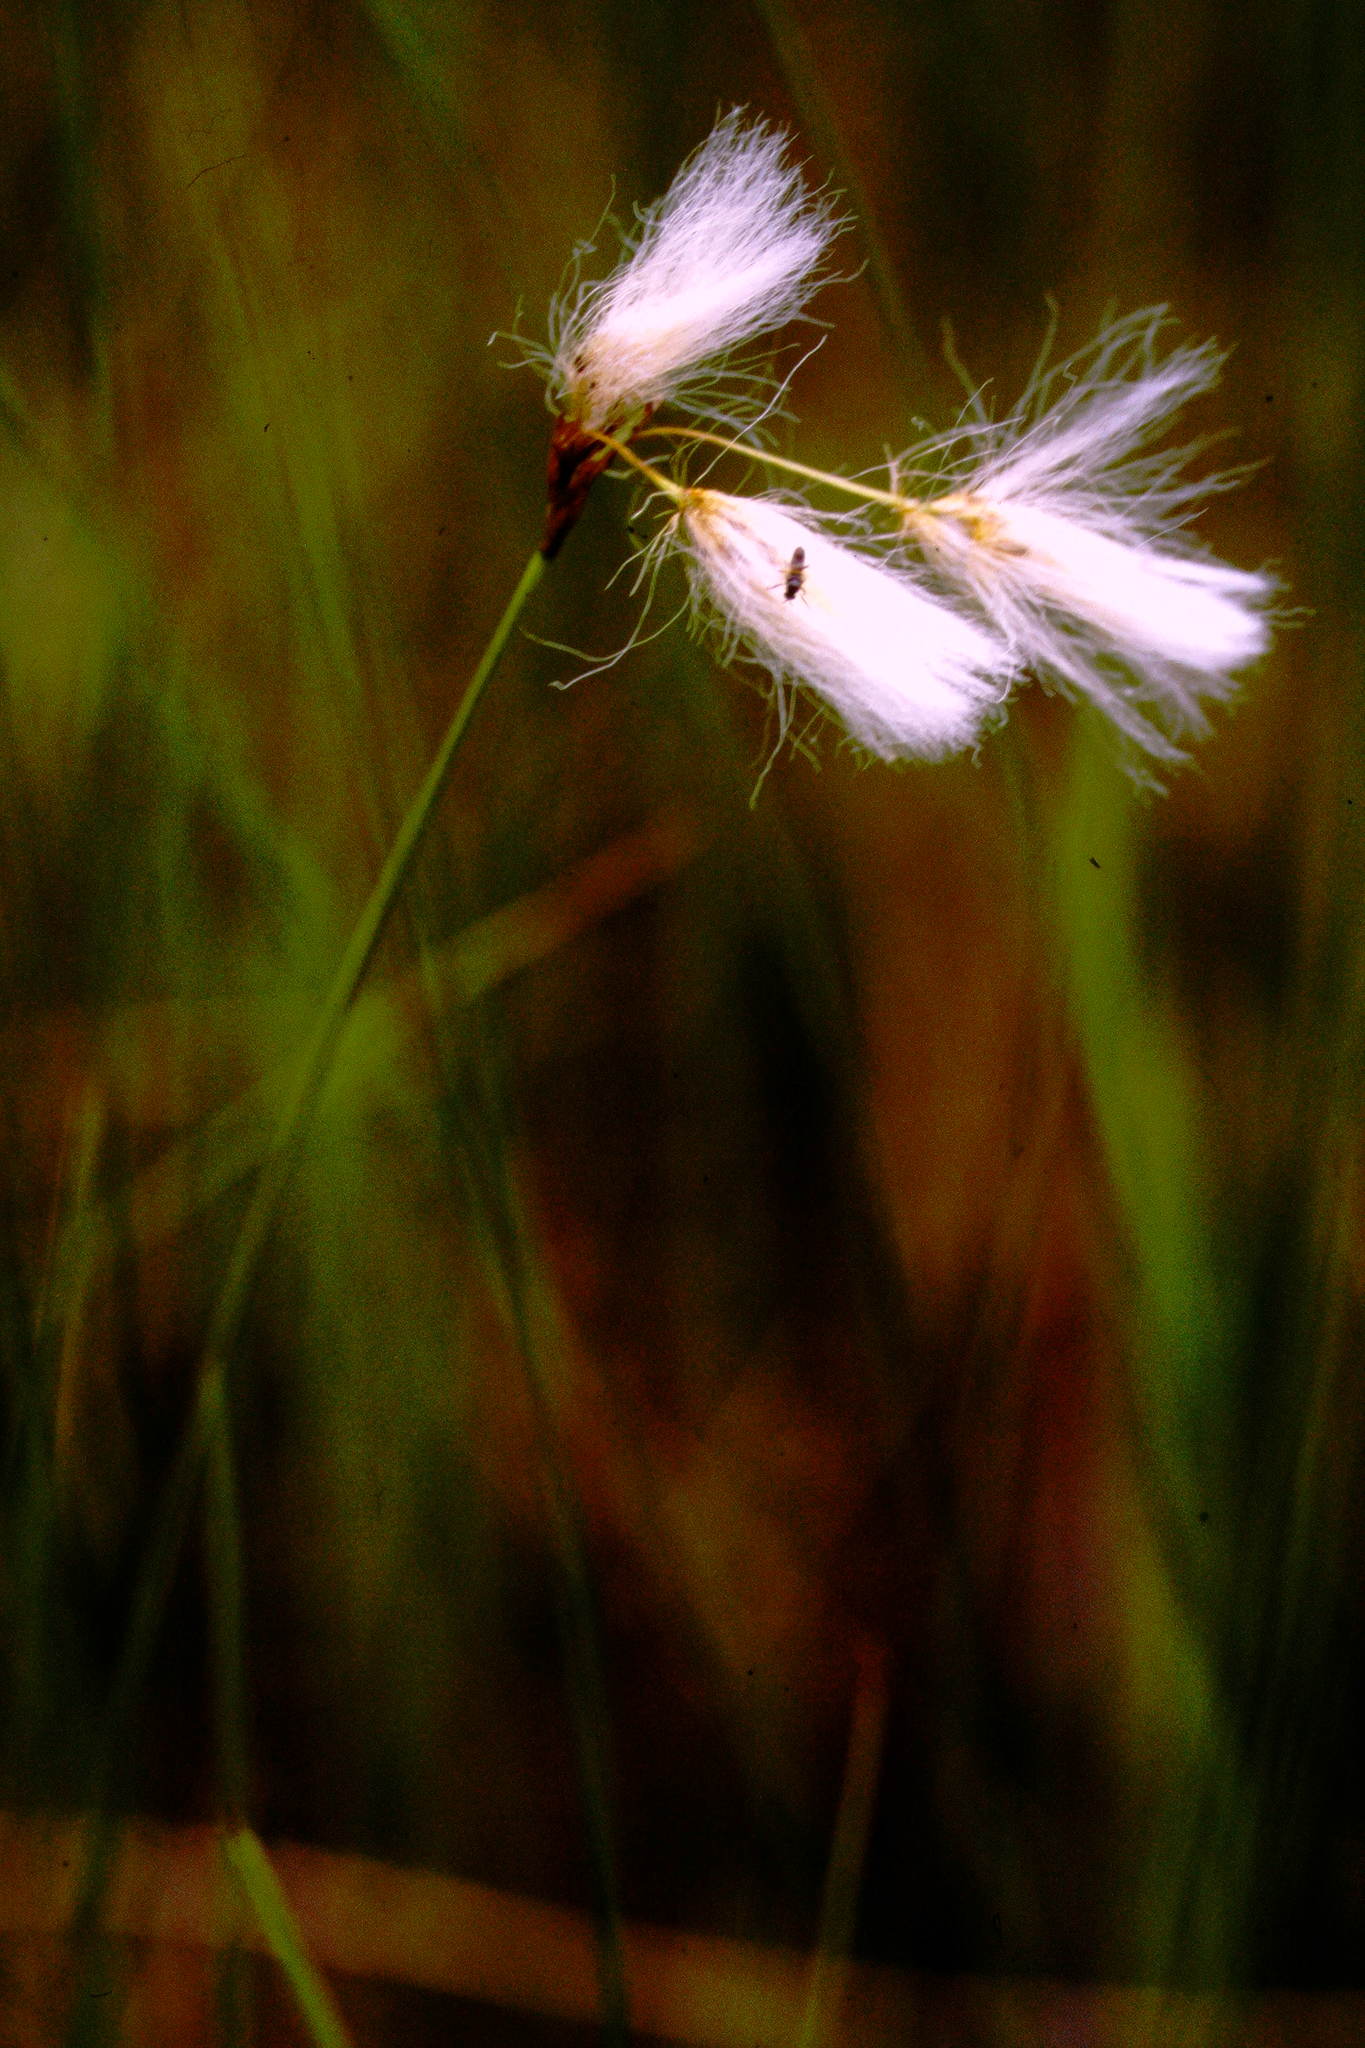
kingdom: Plantae
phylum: Tracheophyta
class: Liliopsida
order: Poales
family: Cyperaceae
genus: Eriophorum
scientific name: Eriophorum gracile
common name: Slender cottongrass
